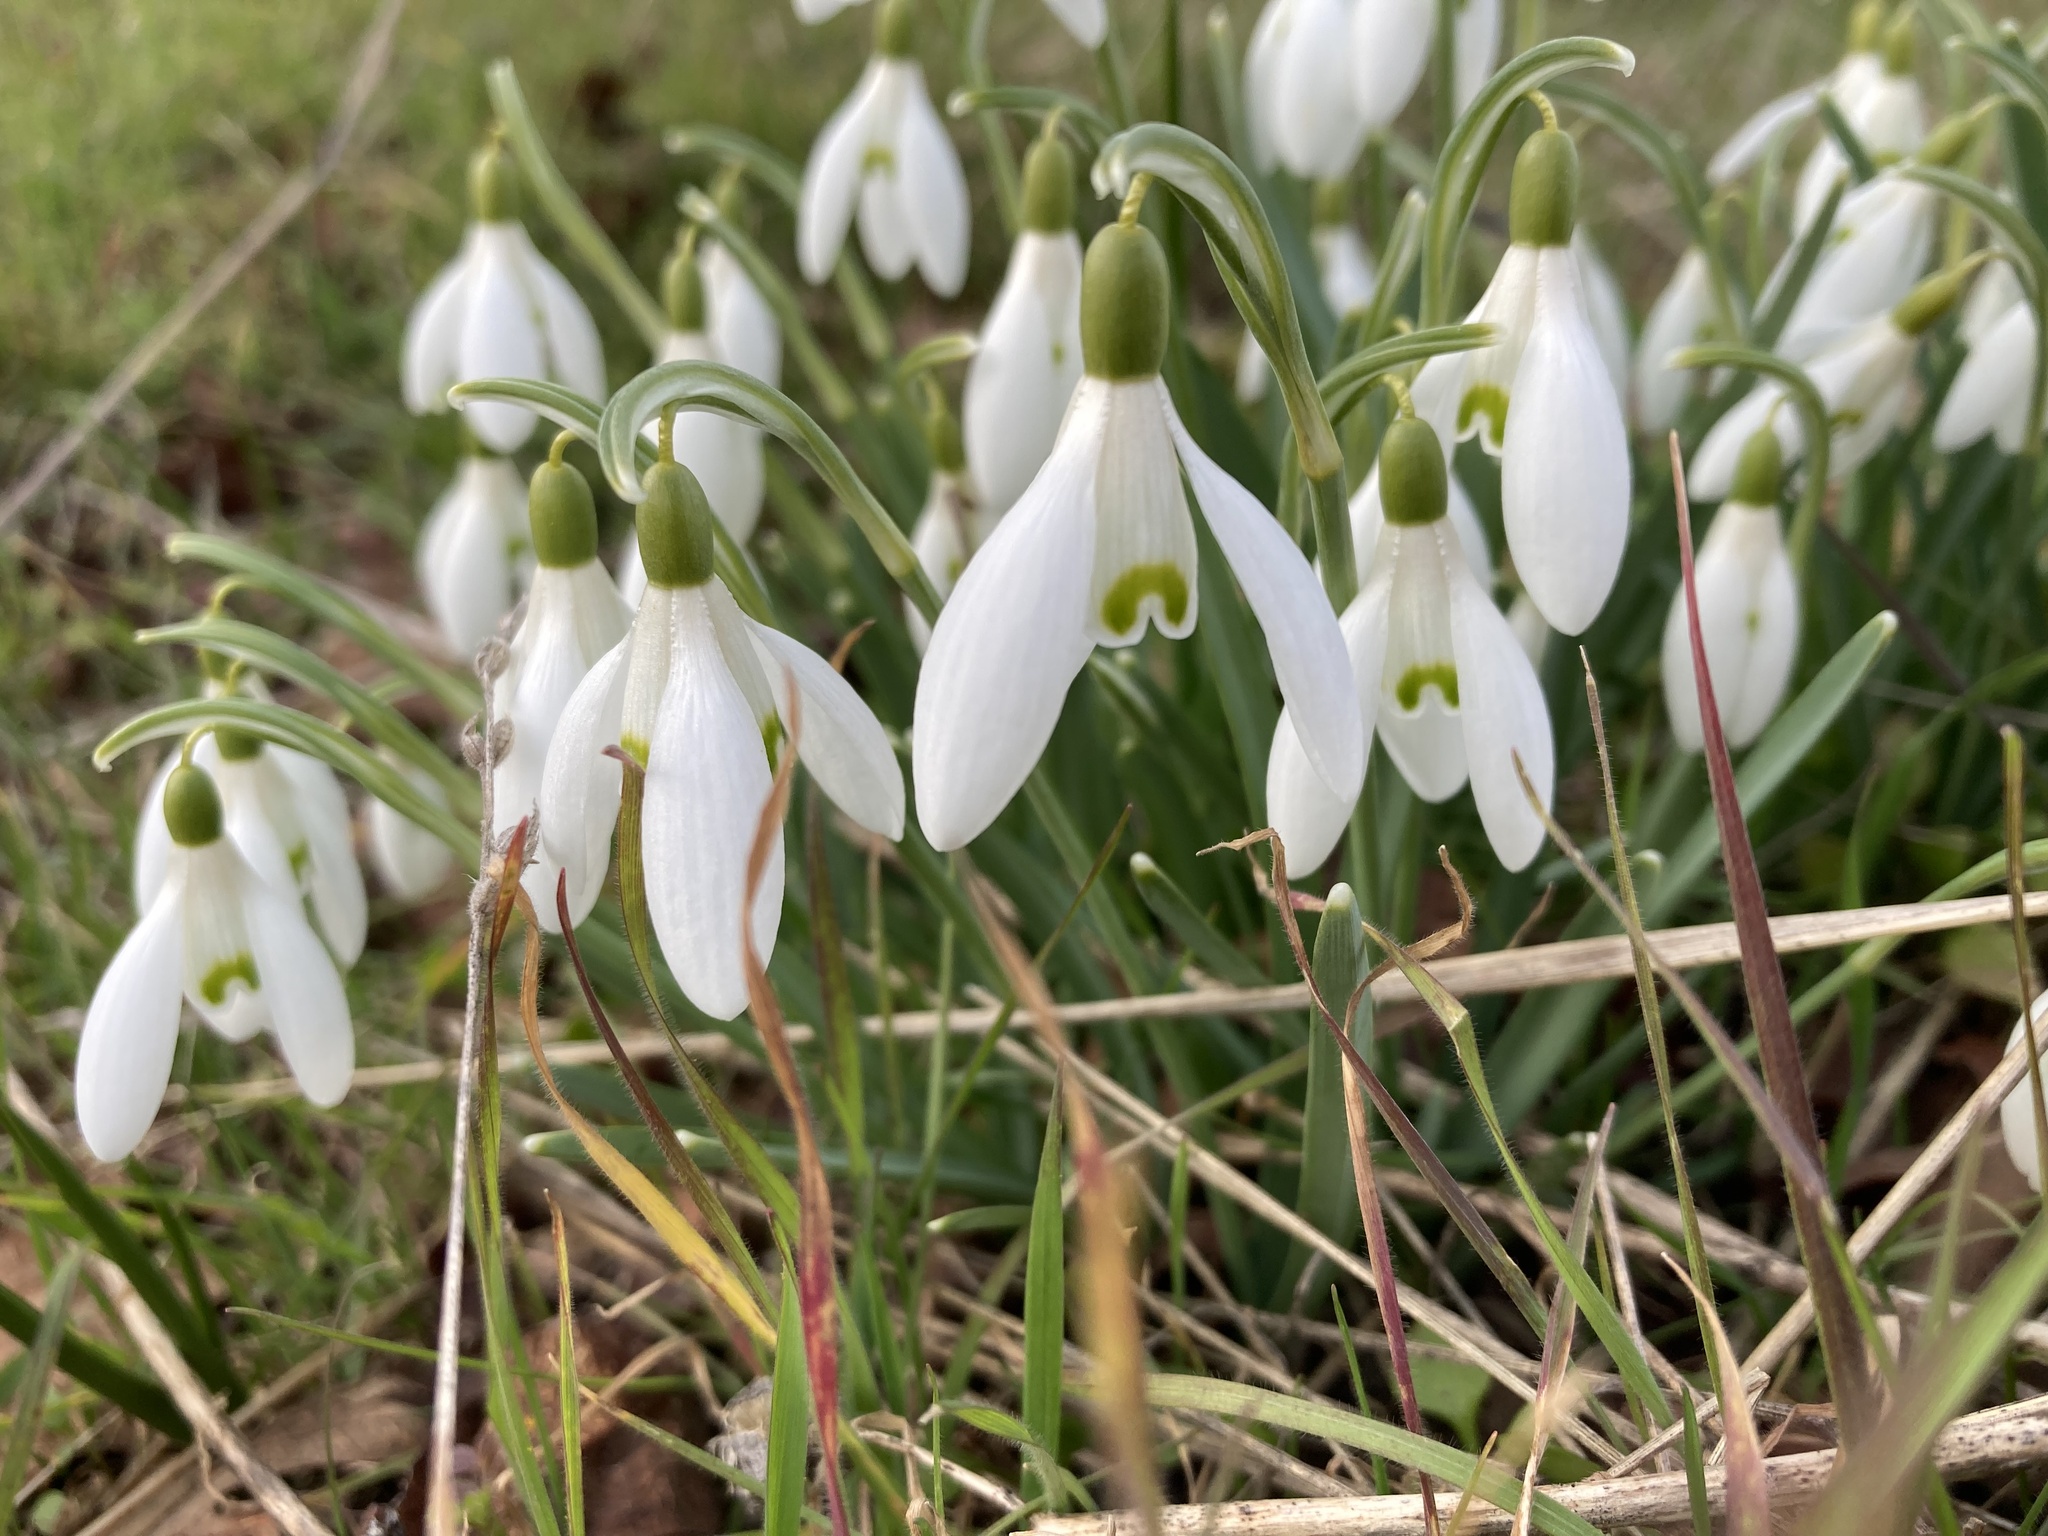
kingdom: Plantae
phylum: Tracheophyta
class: Liliopsida
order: Asparagales
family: Amaryllidaceae
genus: Galanthus
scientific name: Galanthus nivalis
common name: Snowdrop
